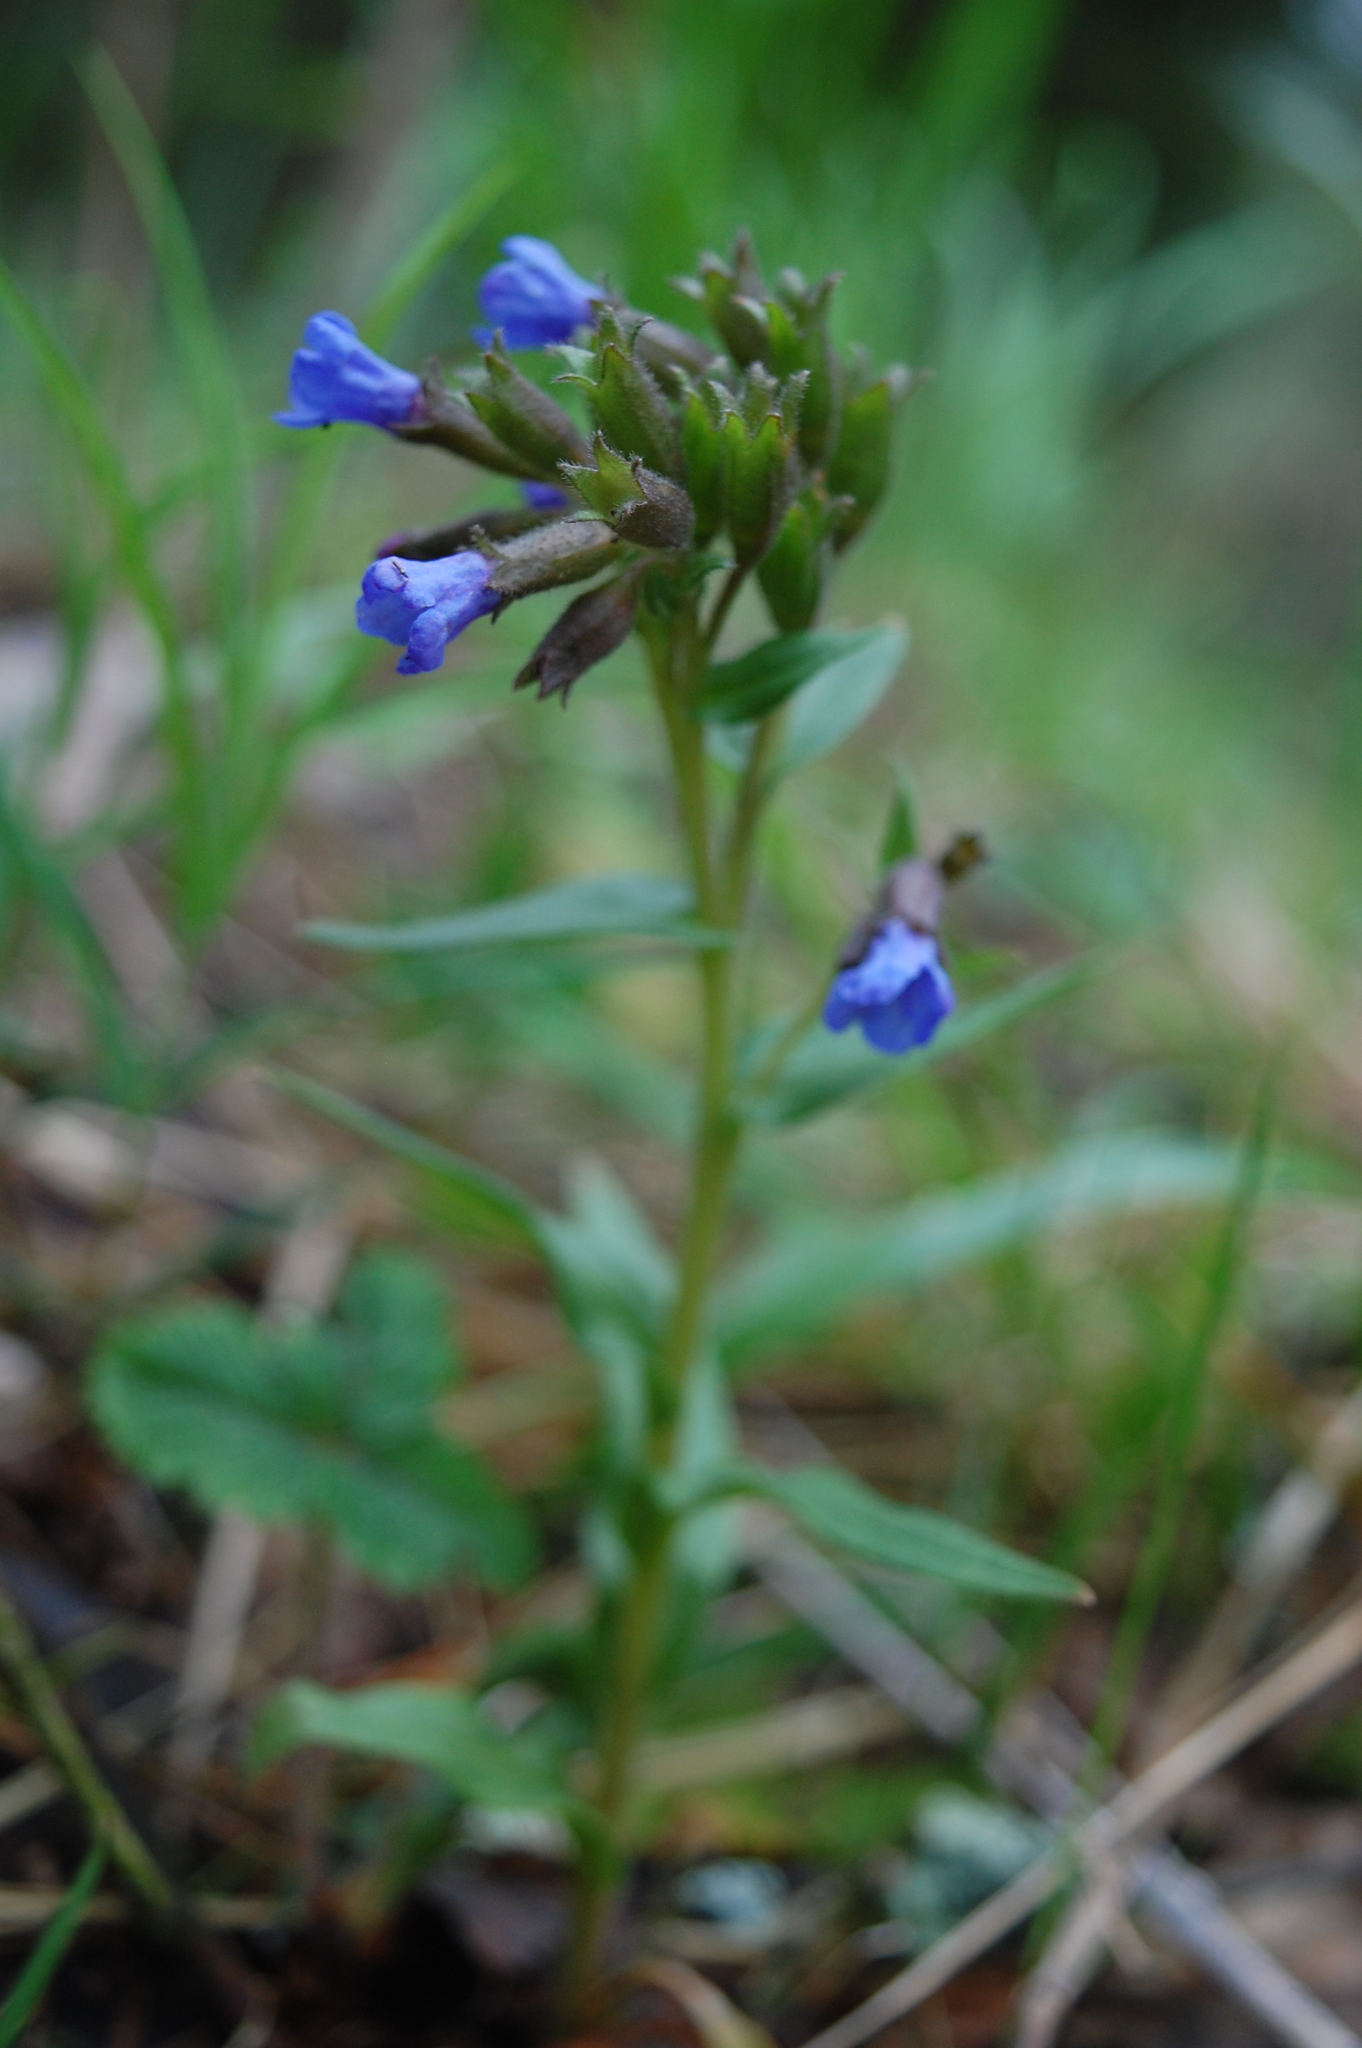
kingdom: Plantae
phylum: Tracheophyta
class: Magnoliopsida
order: Boraginales
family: Boraginaceae
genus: Pulmonaria
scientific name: Pulmonaria angustifolia
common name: Blue cowslip
